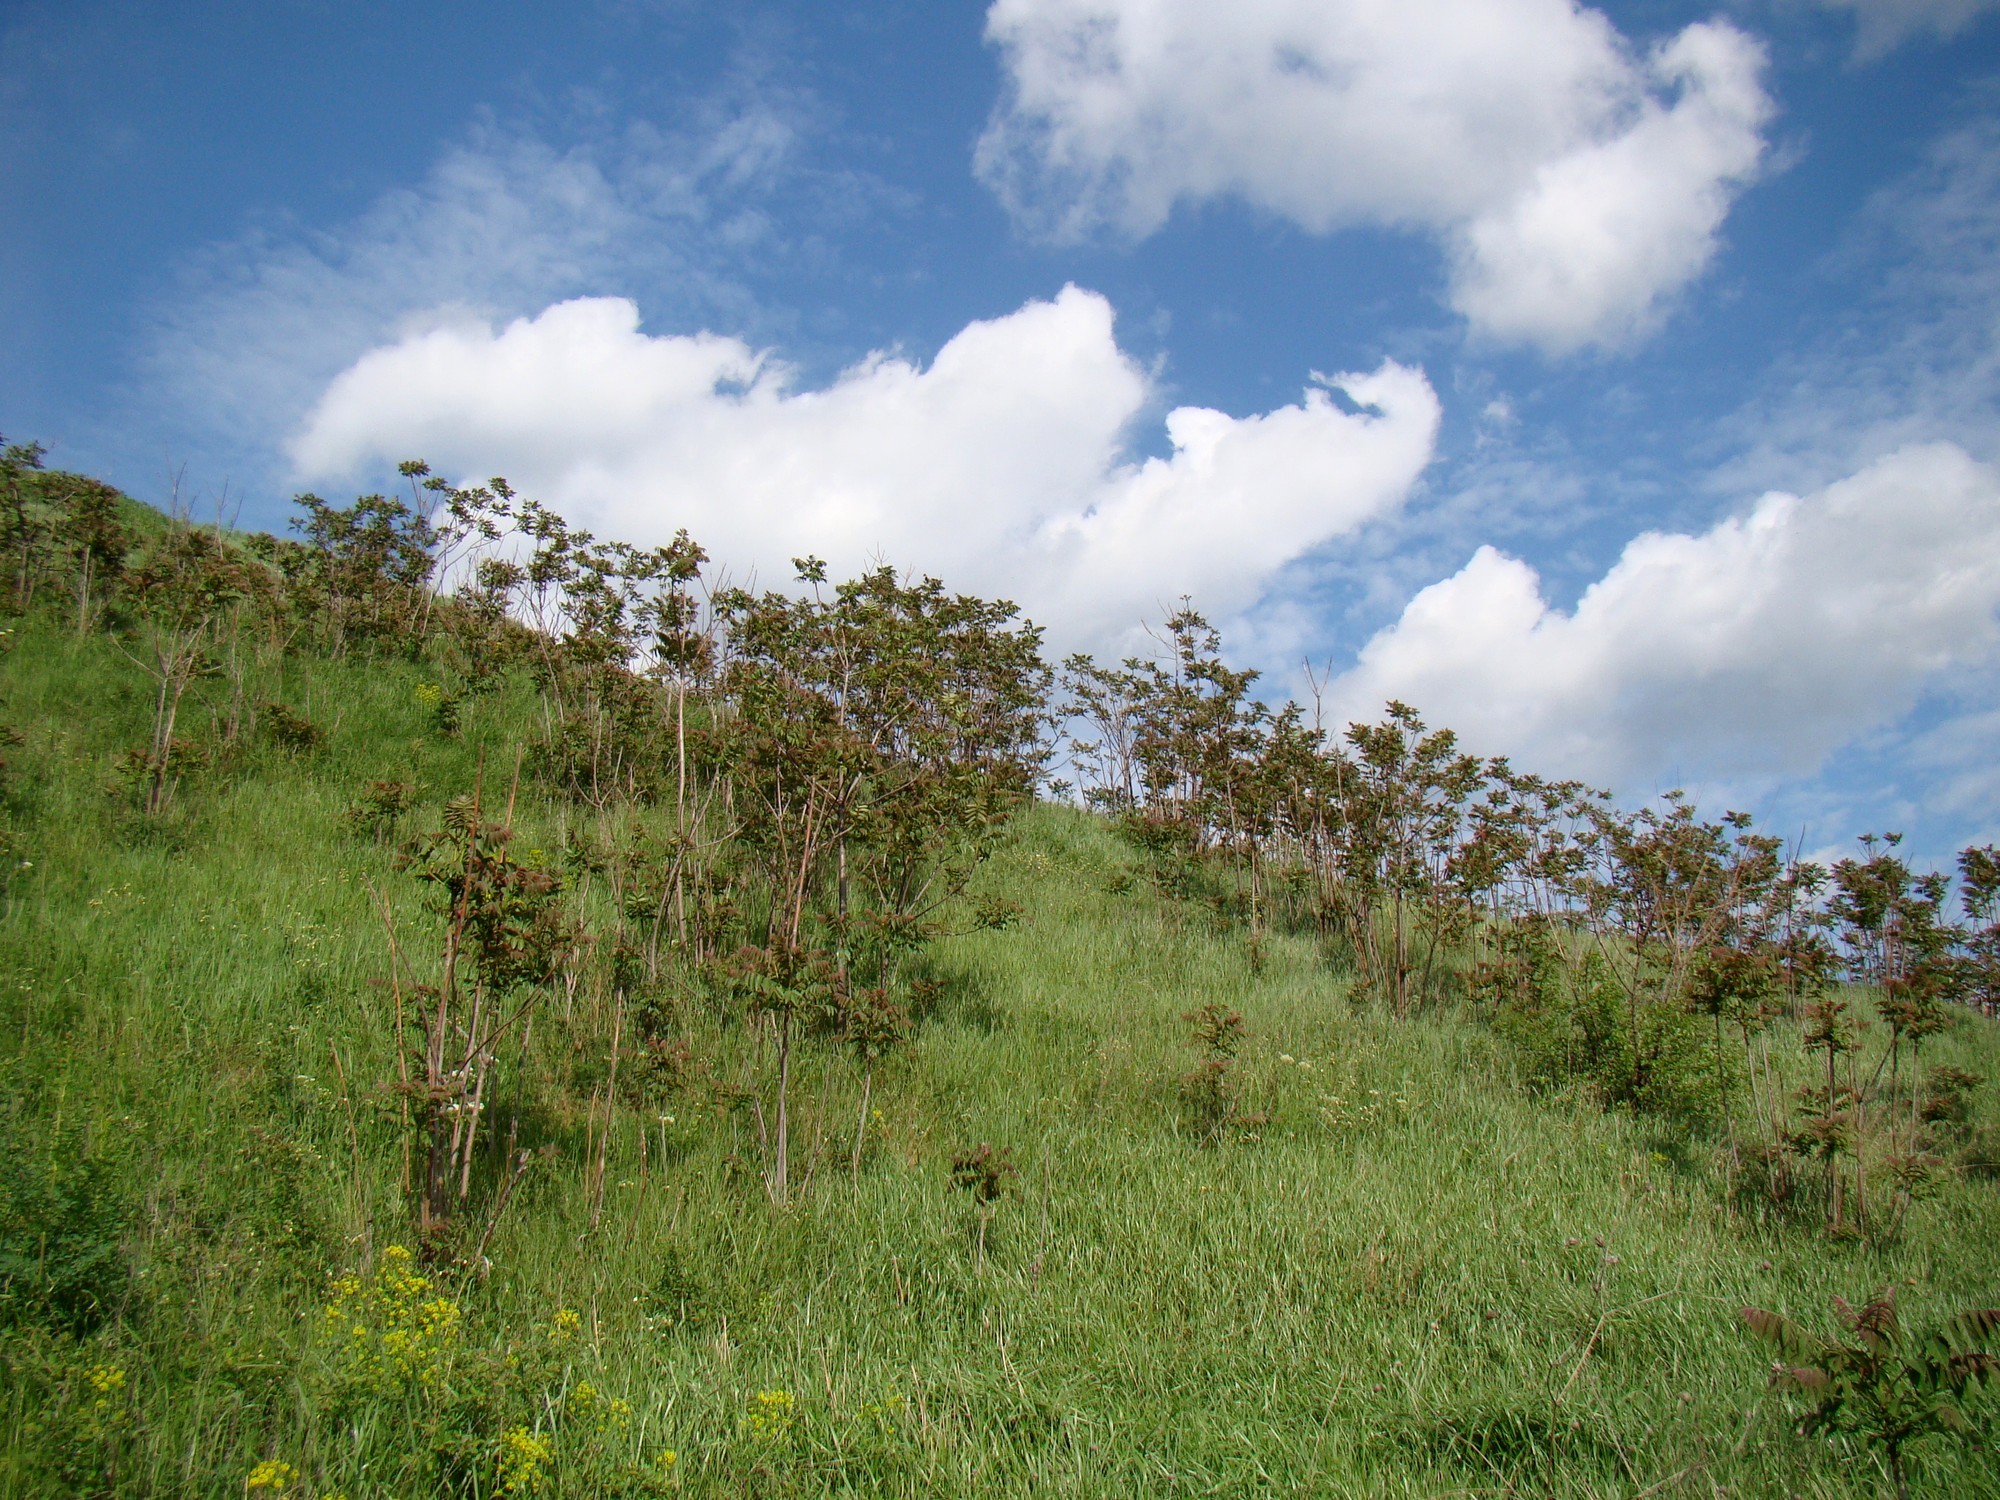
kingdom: Plantae
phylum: Tracheophyta
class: Magnoliopsida
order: Sapindales
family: Simaroubaceae
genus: Ailanthus
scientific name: Ailanthus altissima
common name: Tree-of-heaven
